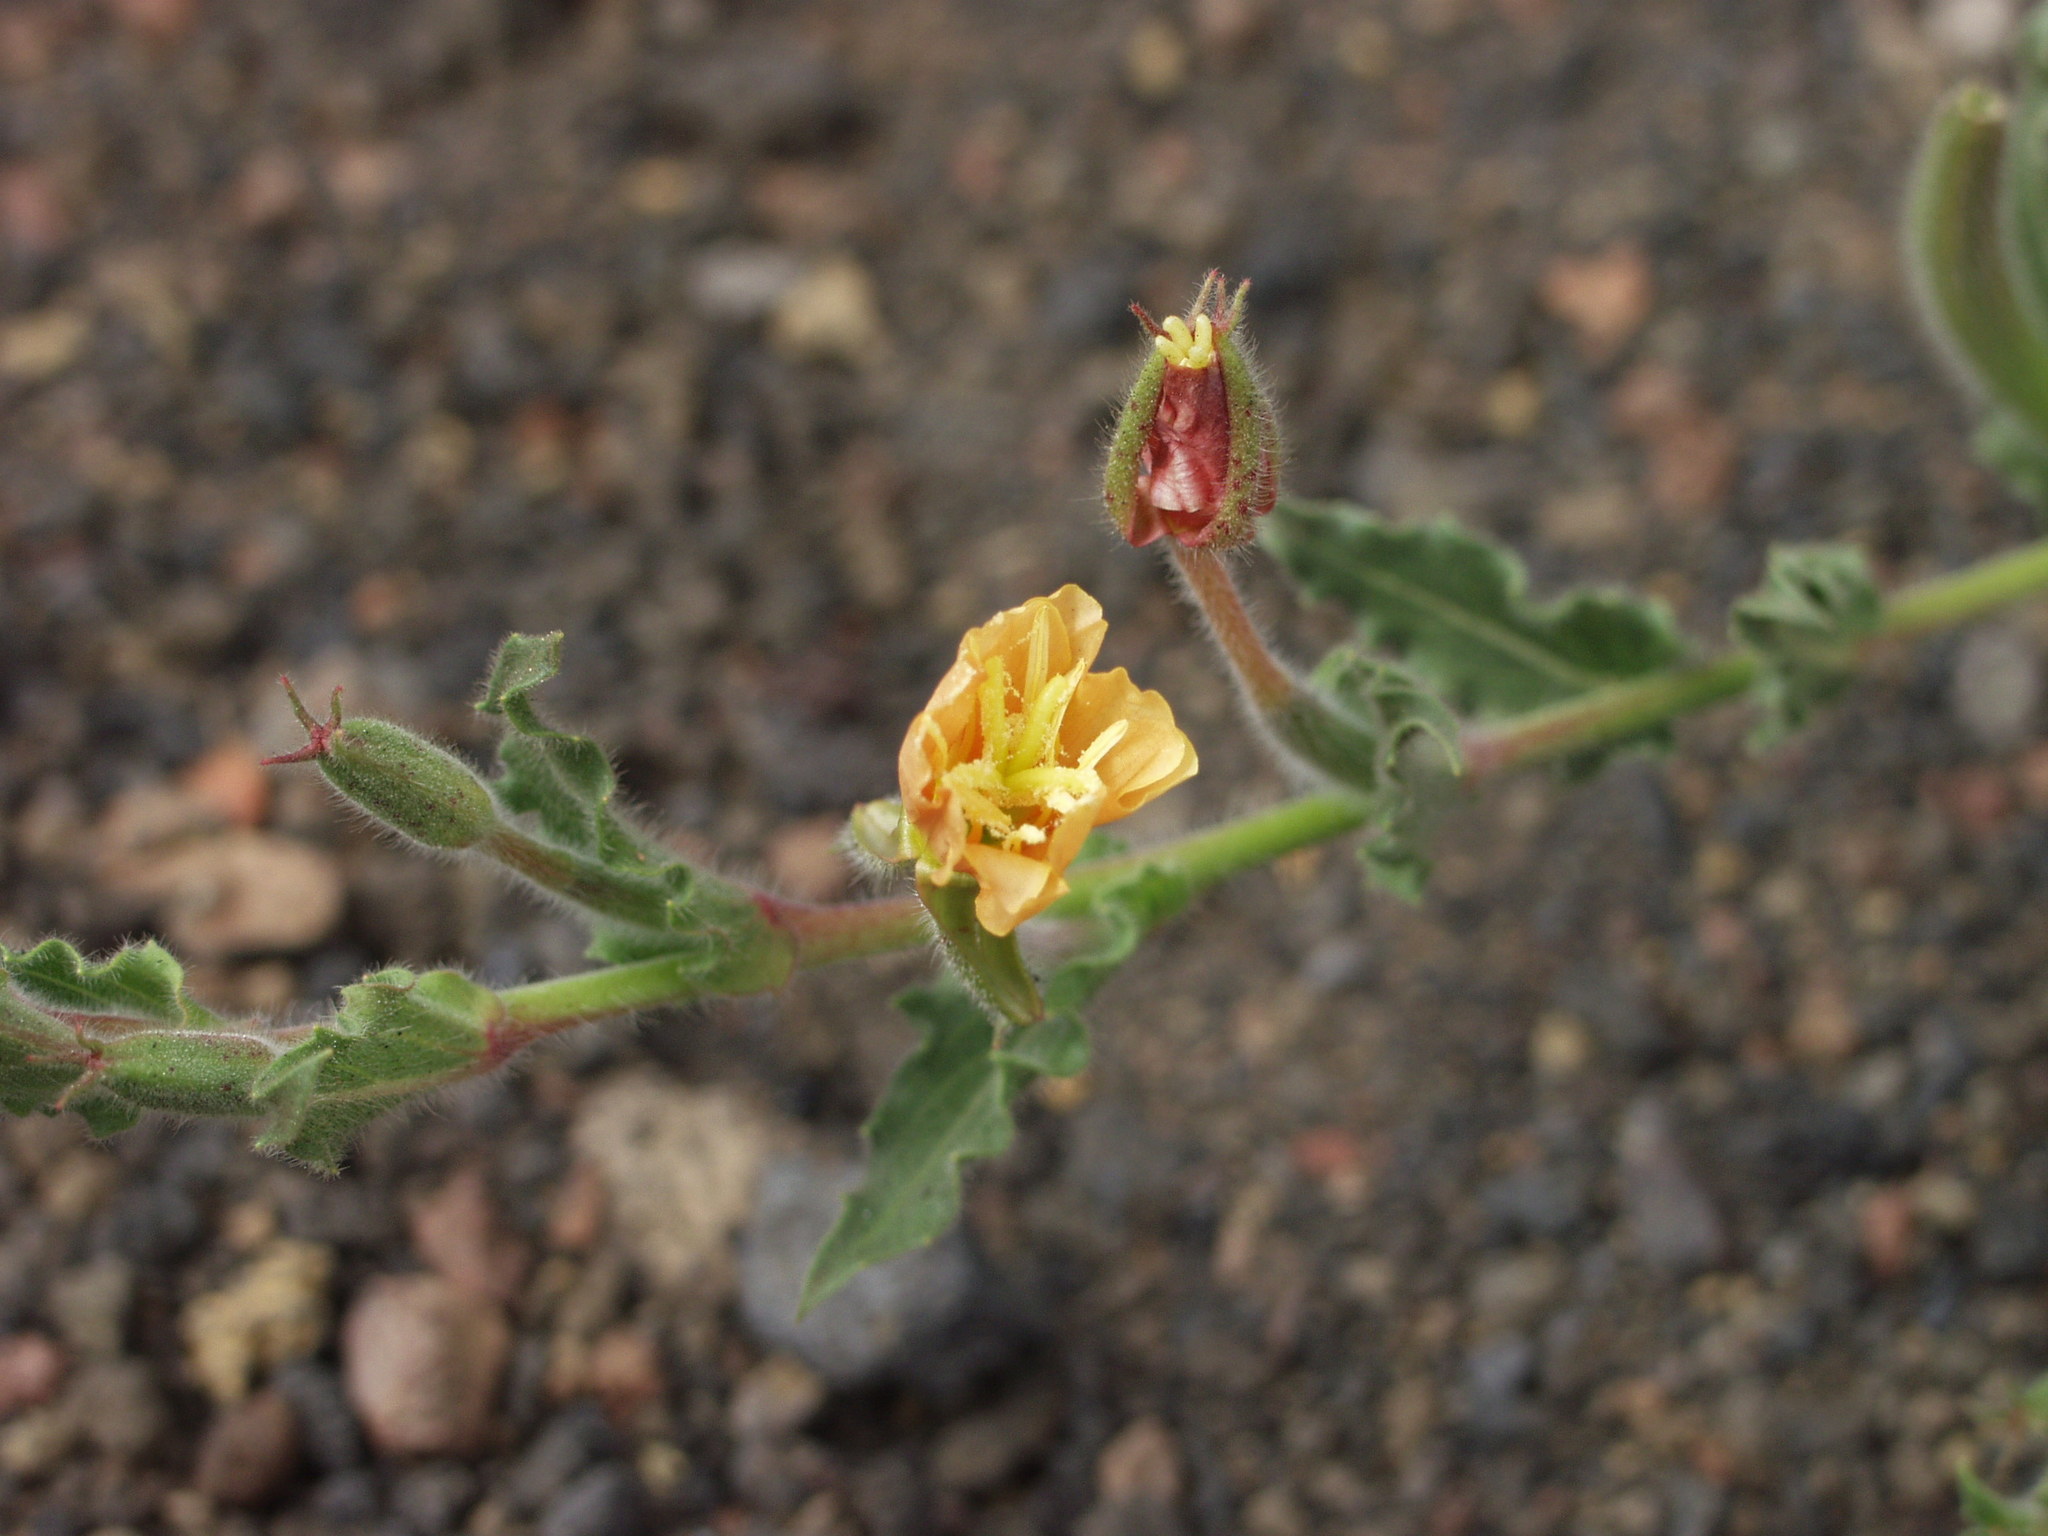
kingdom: Plantae
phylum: Tracheophyta
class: Magnoliopsida
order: Myrtales
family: Onagraceae
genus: Oenothera
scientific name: Oenothera indecora
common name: Small-flower evening-primrose
